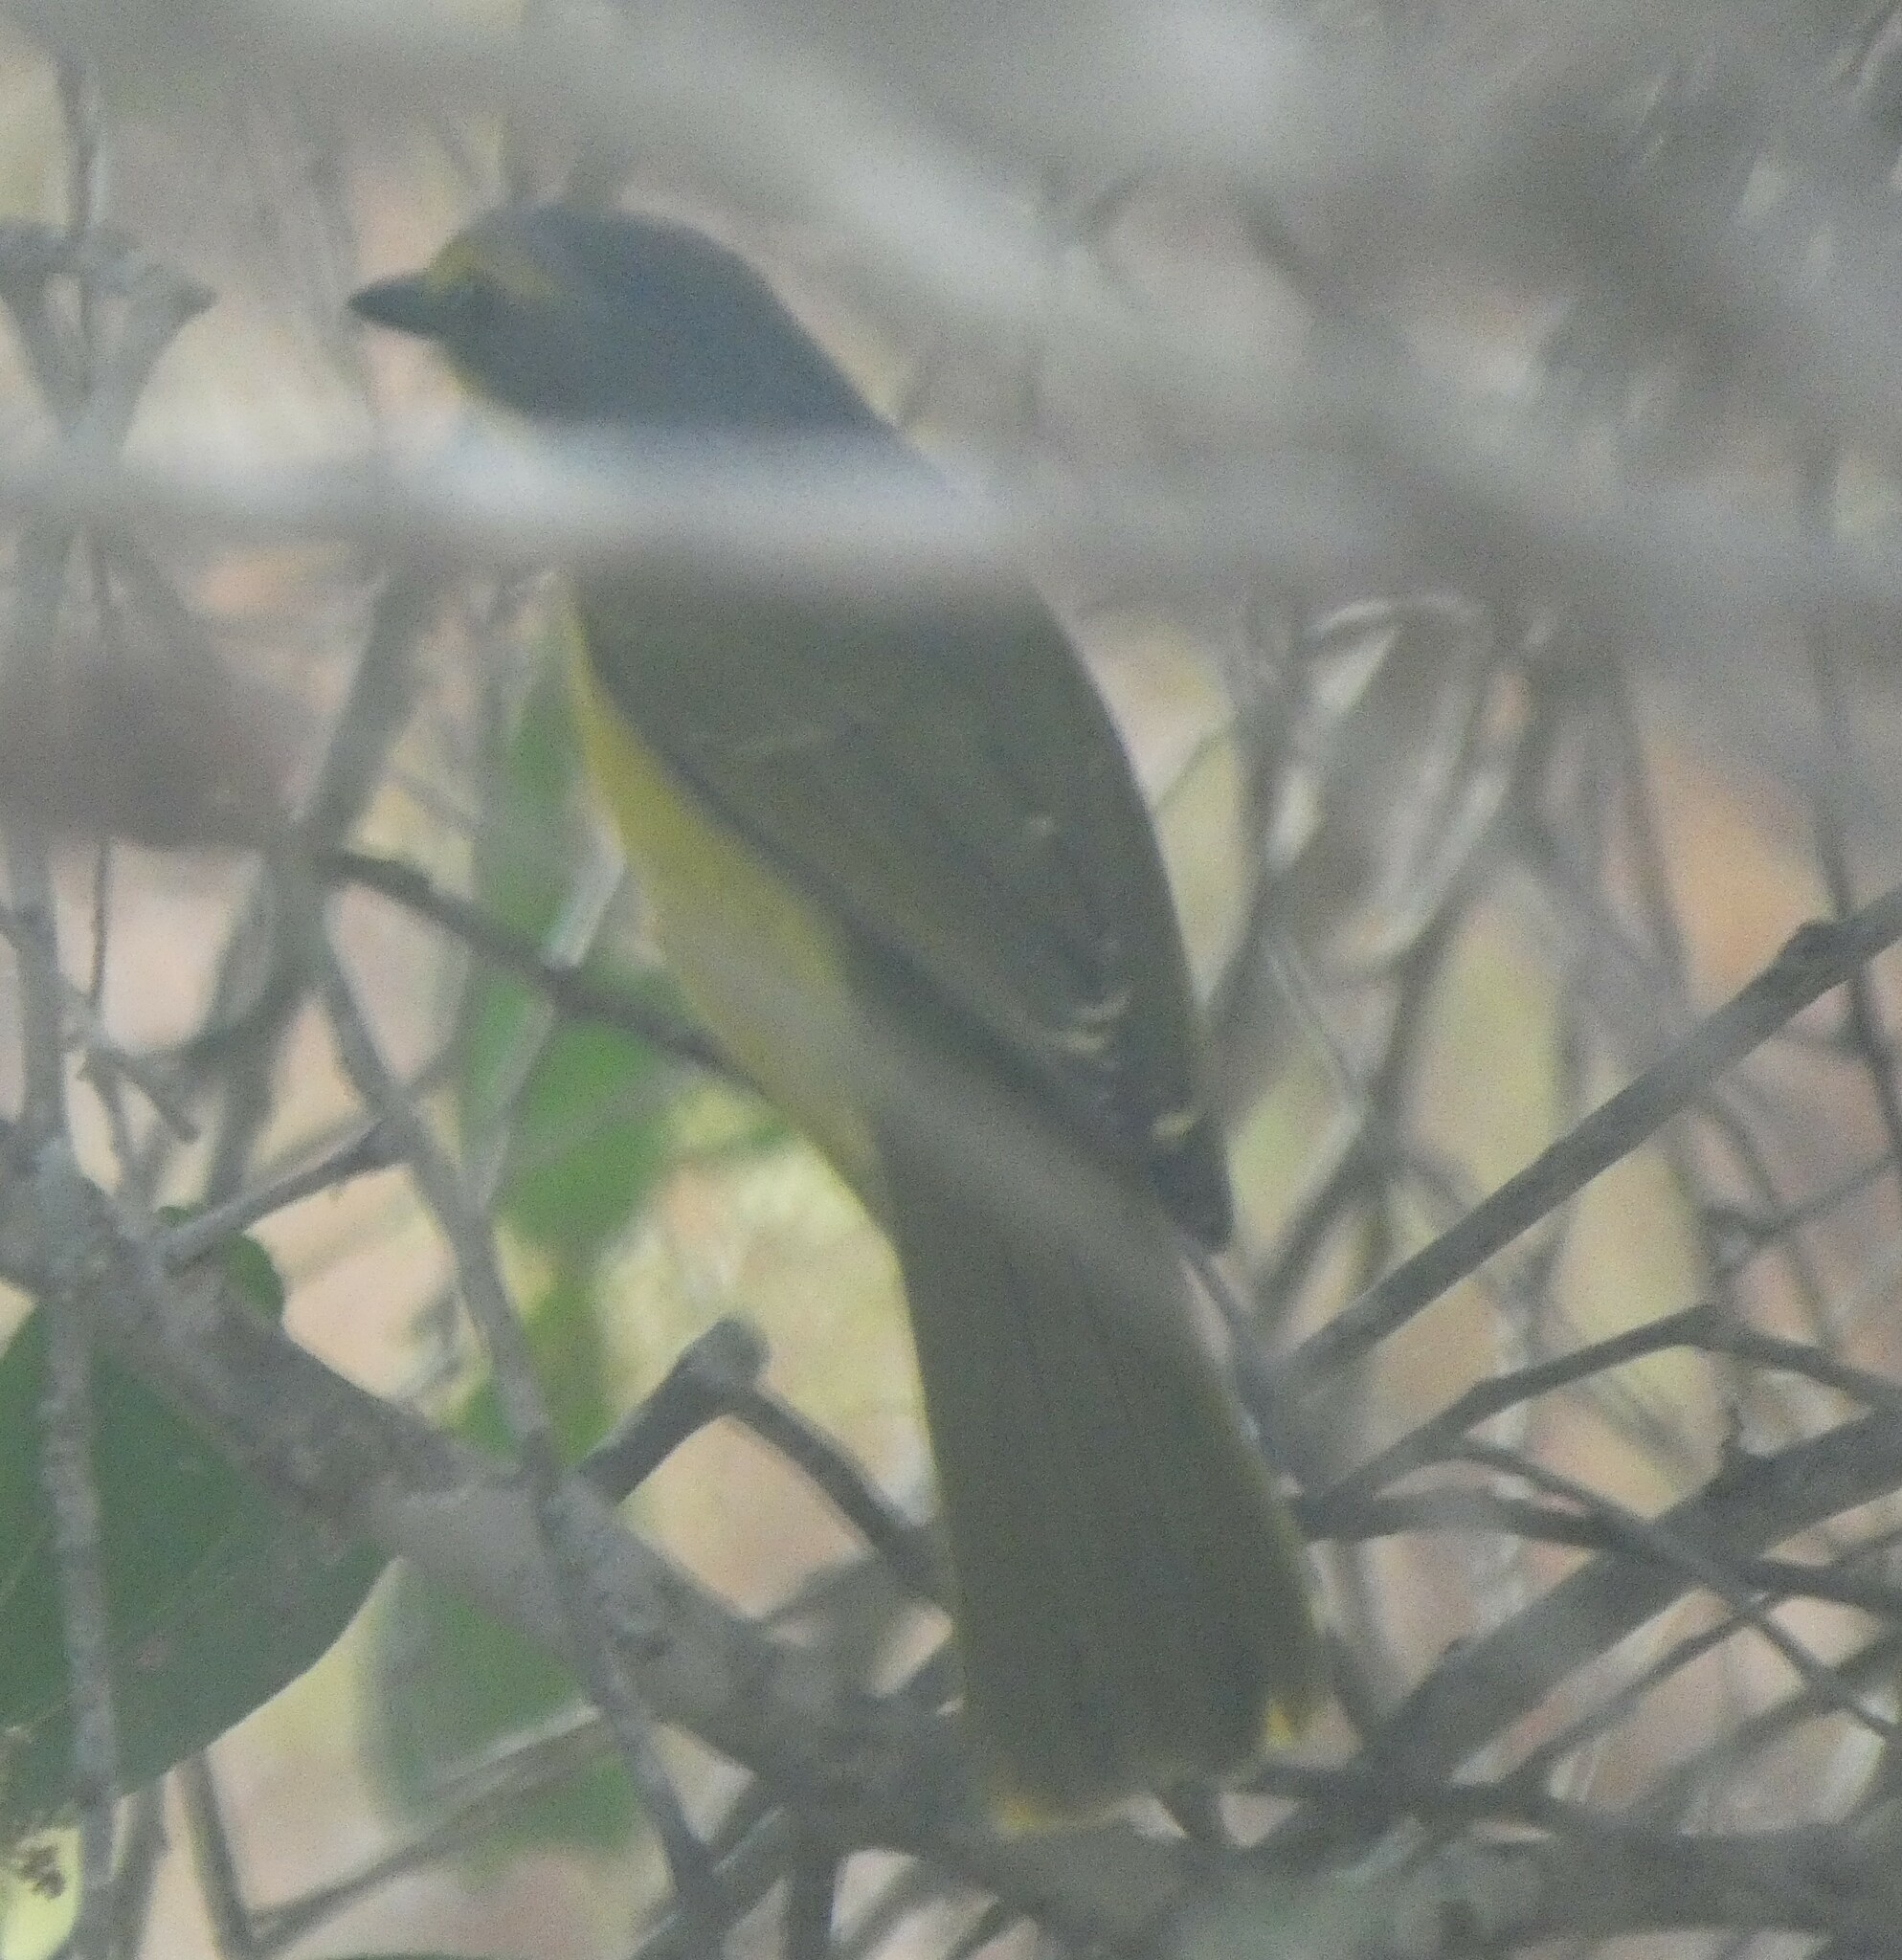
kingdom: Animalia
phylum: Chordata
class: Aves
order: Passeriformes
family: Malaconotidae
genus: Chlorophoneus
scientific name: Chlorophoneus sulfureopectus
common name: Orange-breasted bushshrike
